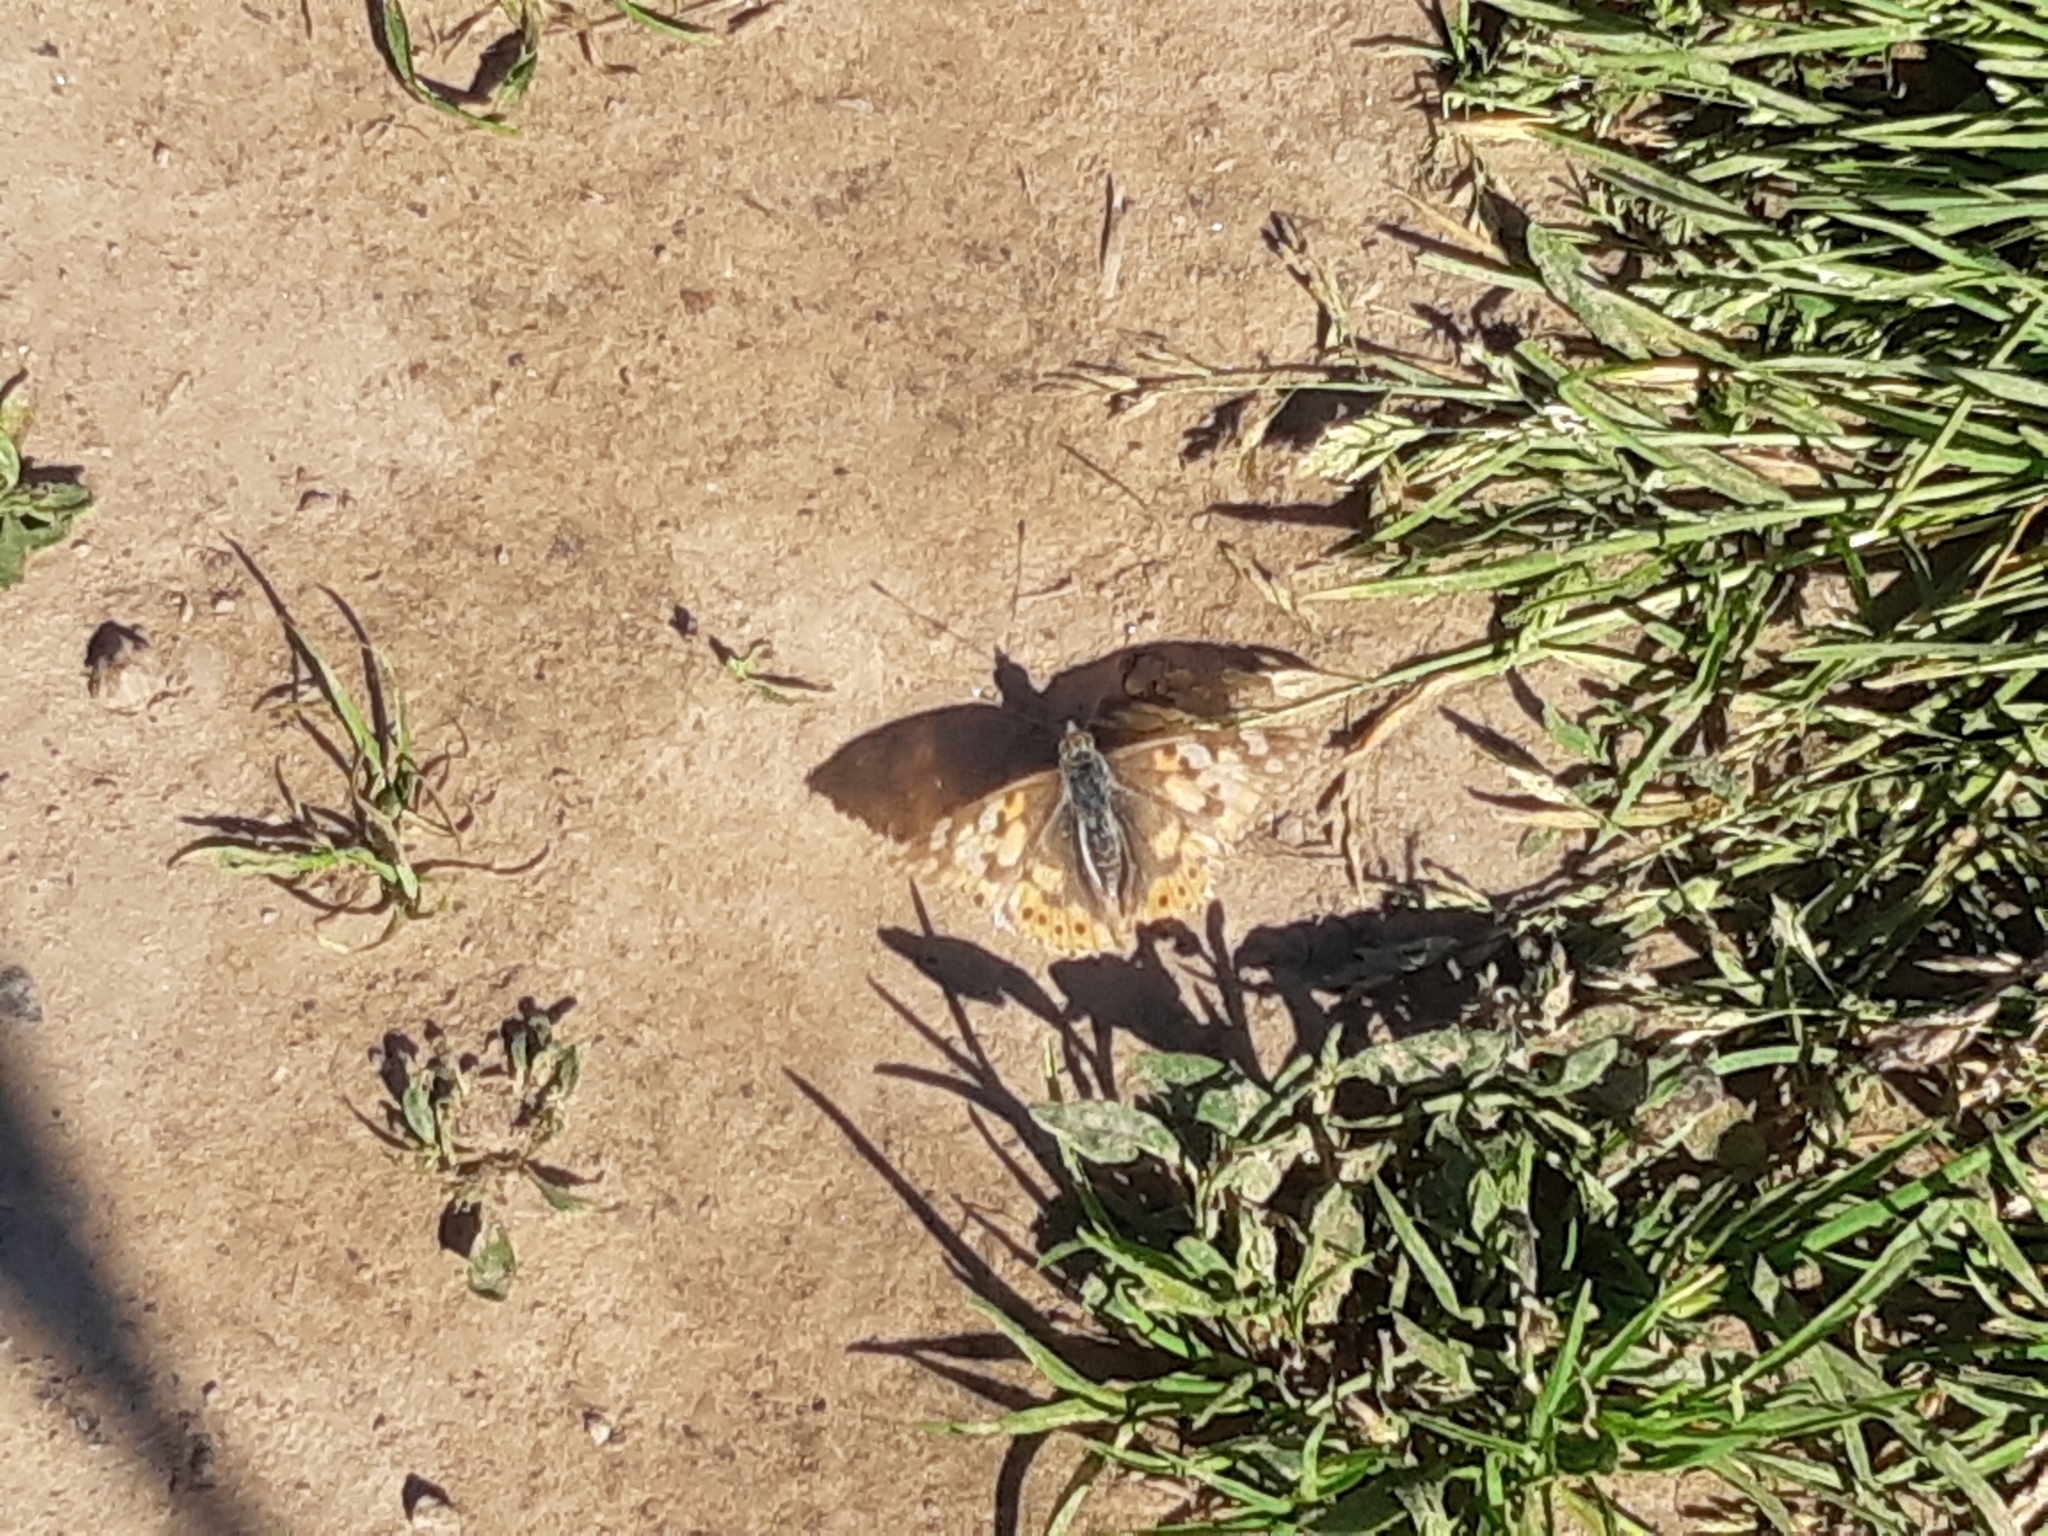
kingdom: Animalia
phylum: Arthropoda
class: Insecta
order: Lepidoptera
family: Nymphalidae
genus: Vanessa
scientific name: Vanessa cardui
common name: Painted lady
